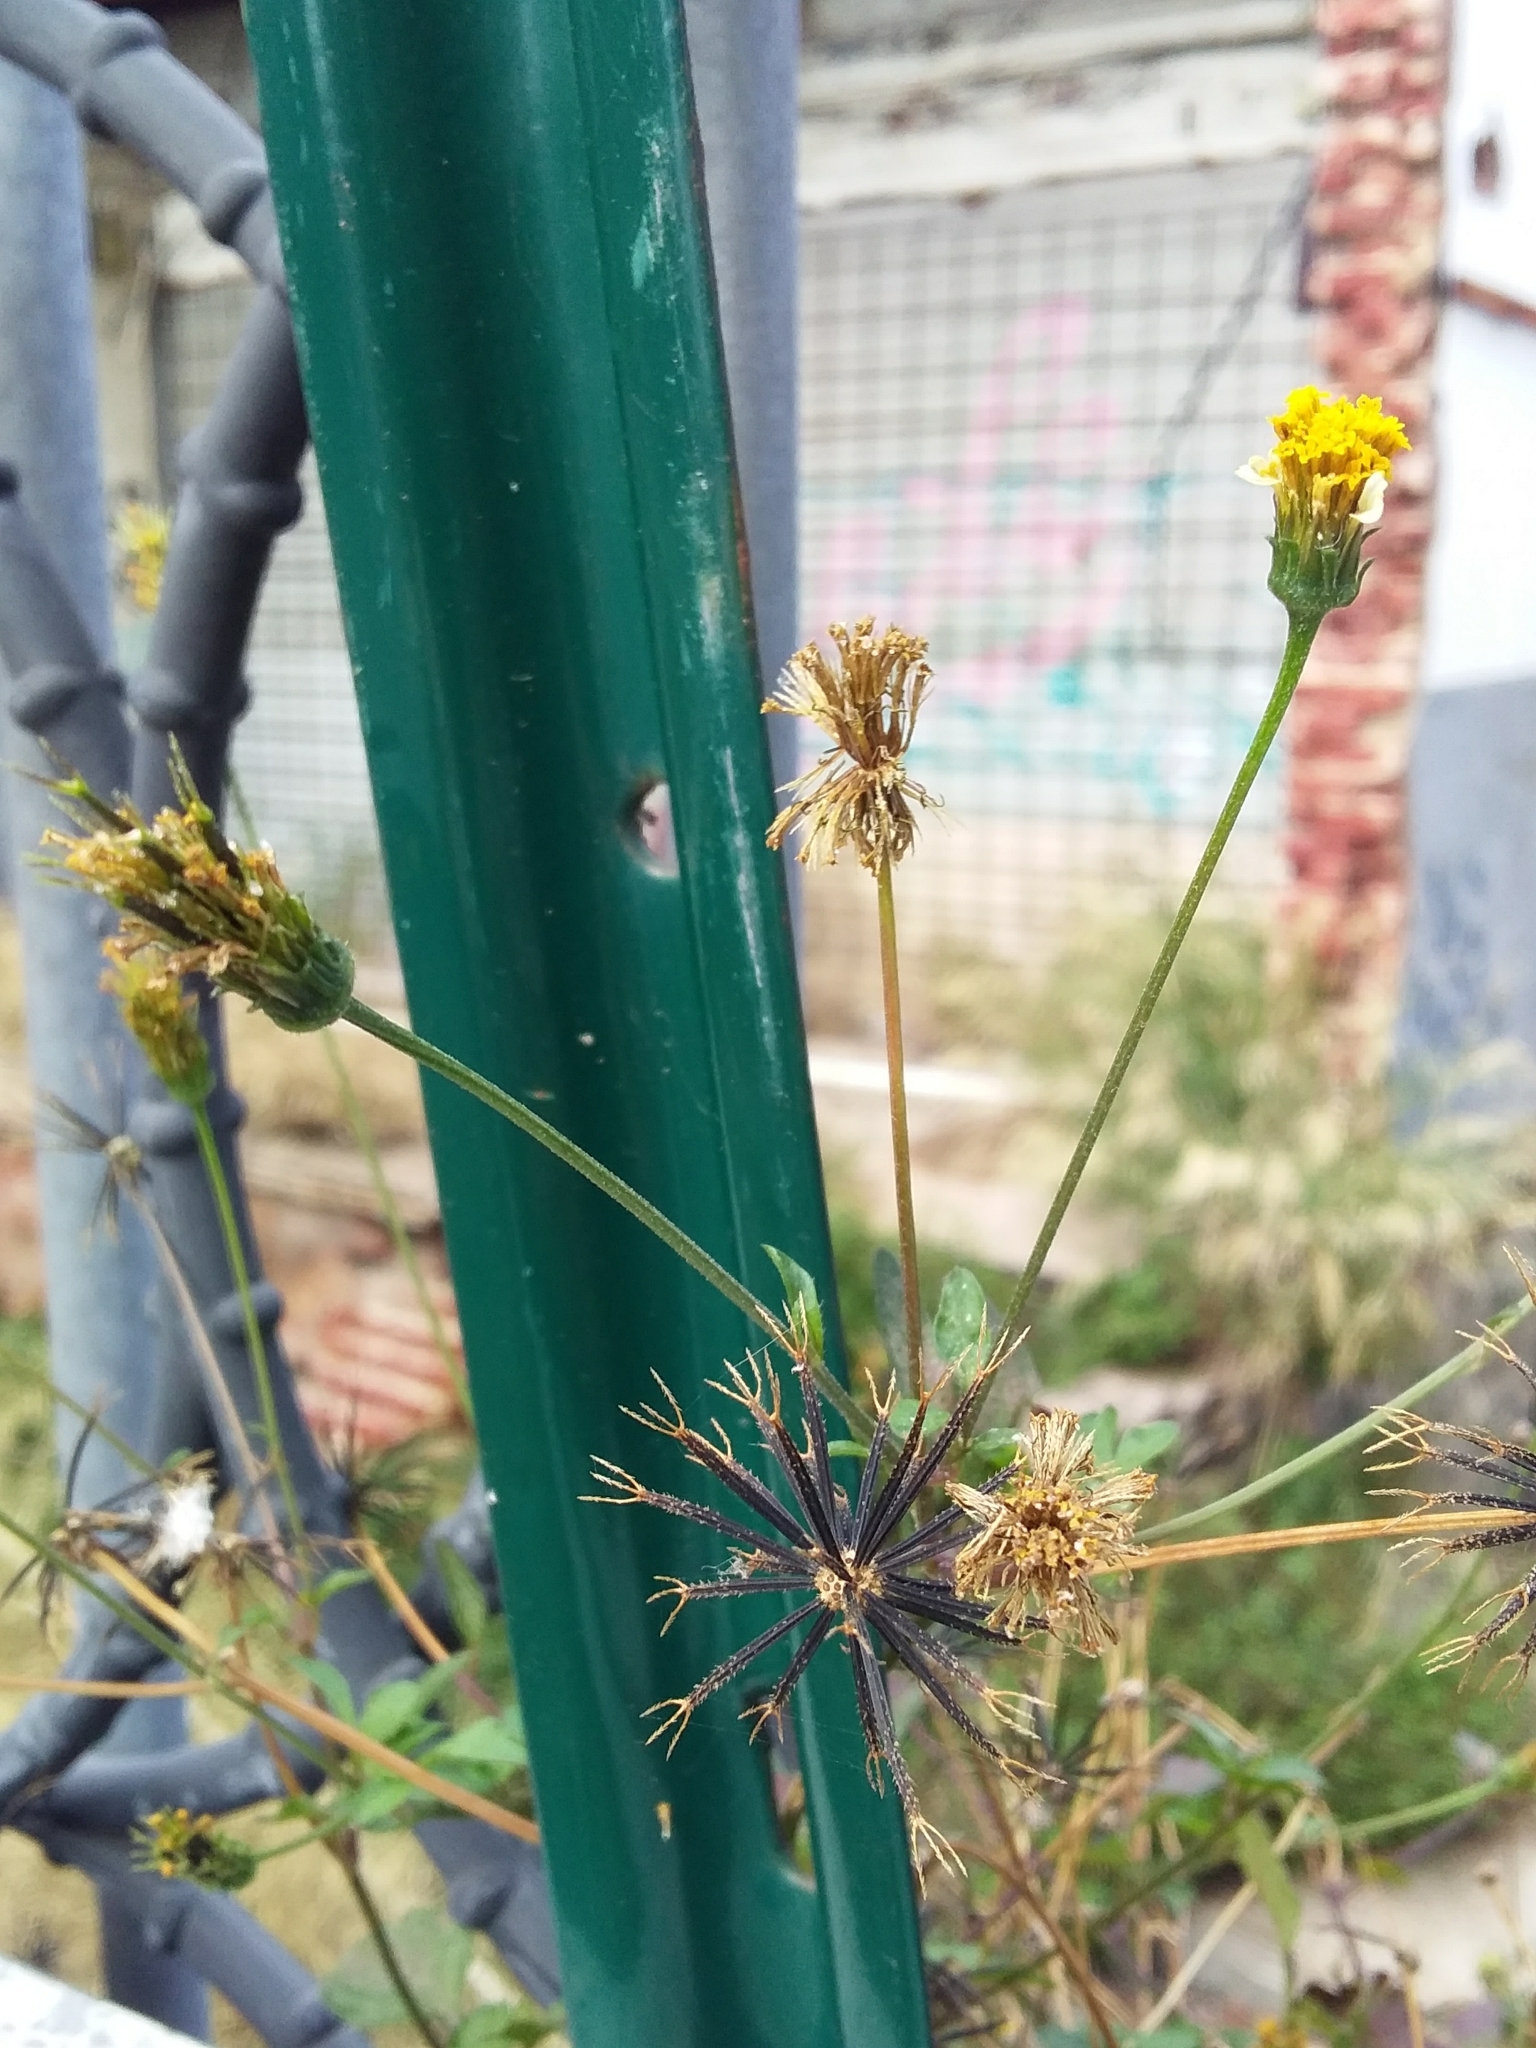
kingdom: Plantae
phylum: Tracheophyta
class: Magnoliopsida
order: Asterales
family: Asteraceae
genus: Bidens
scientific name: Bidens pilosa
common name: Black-jack
